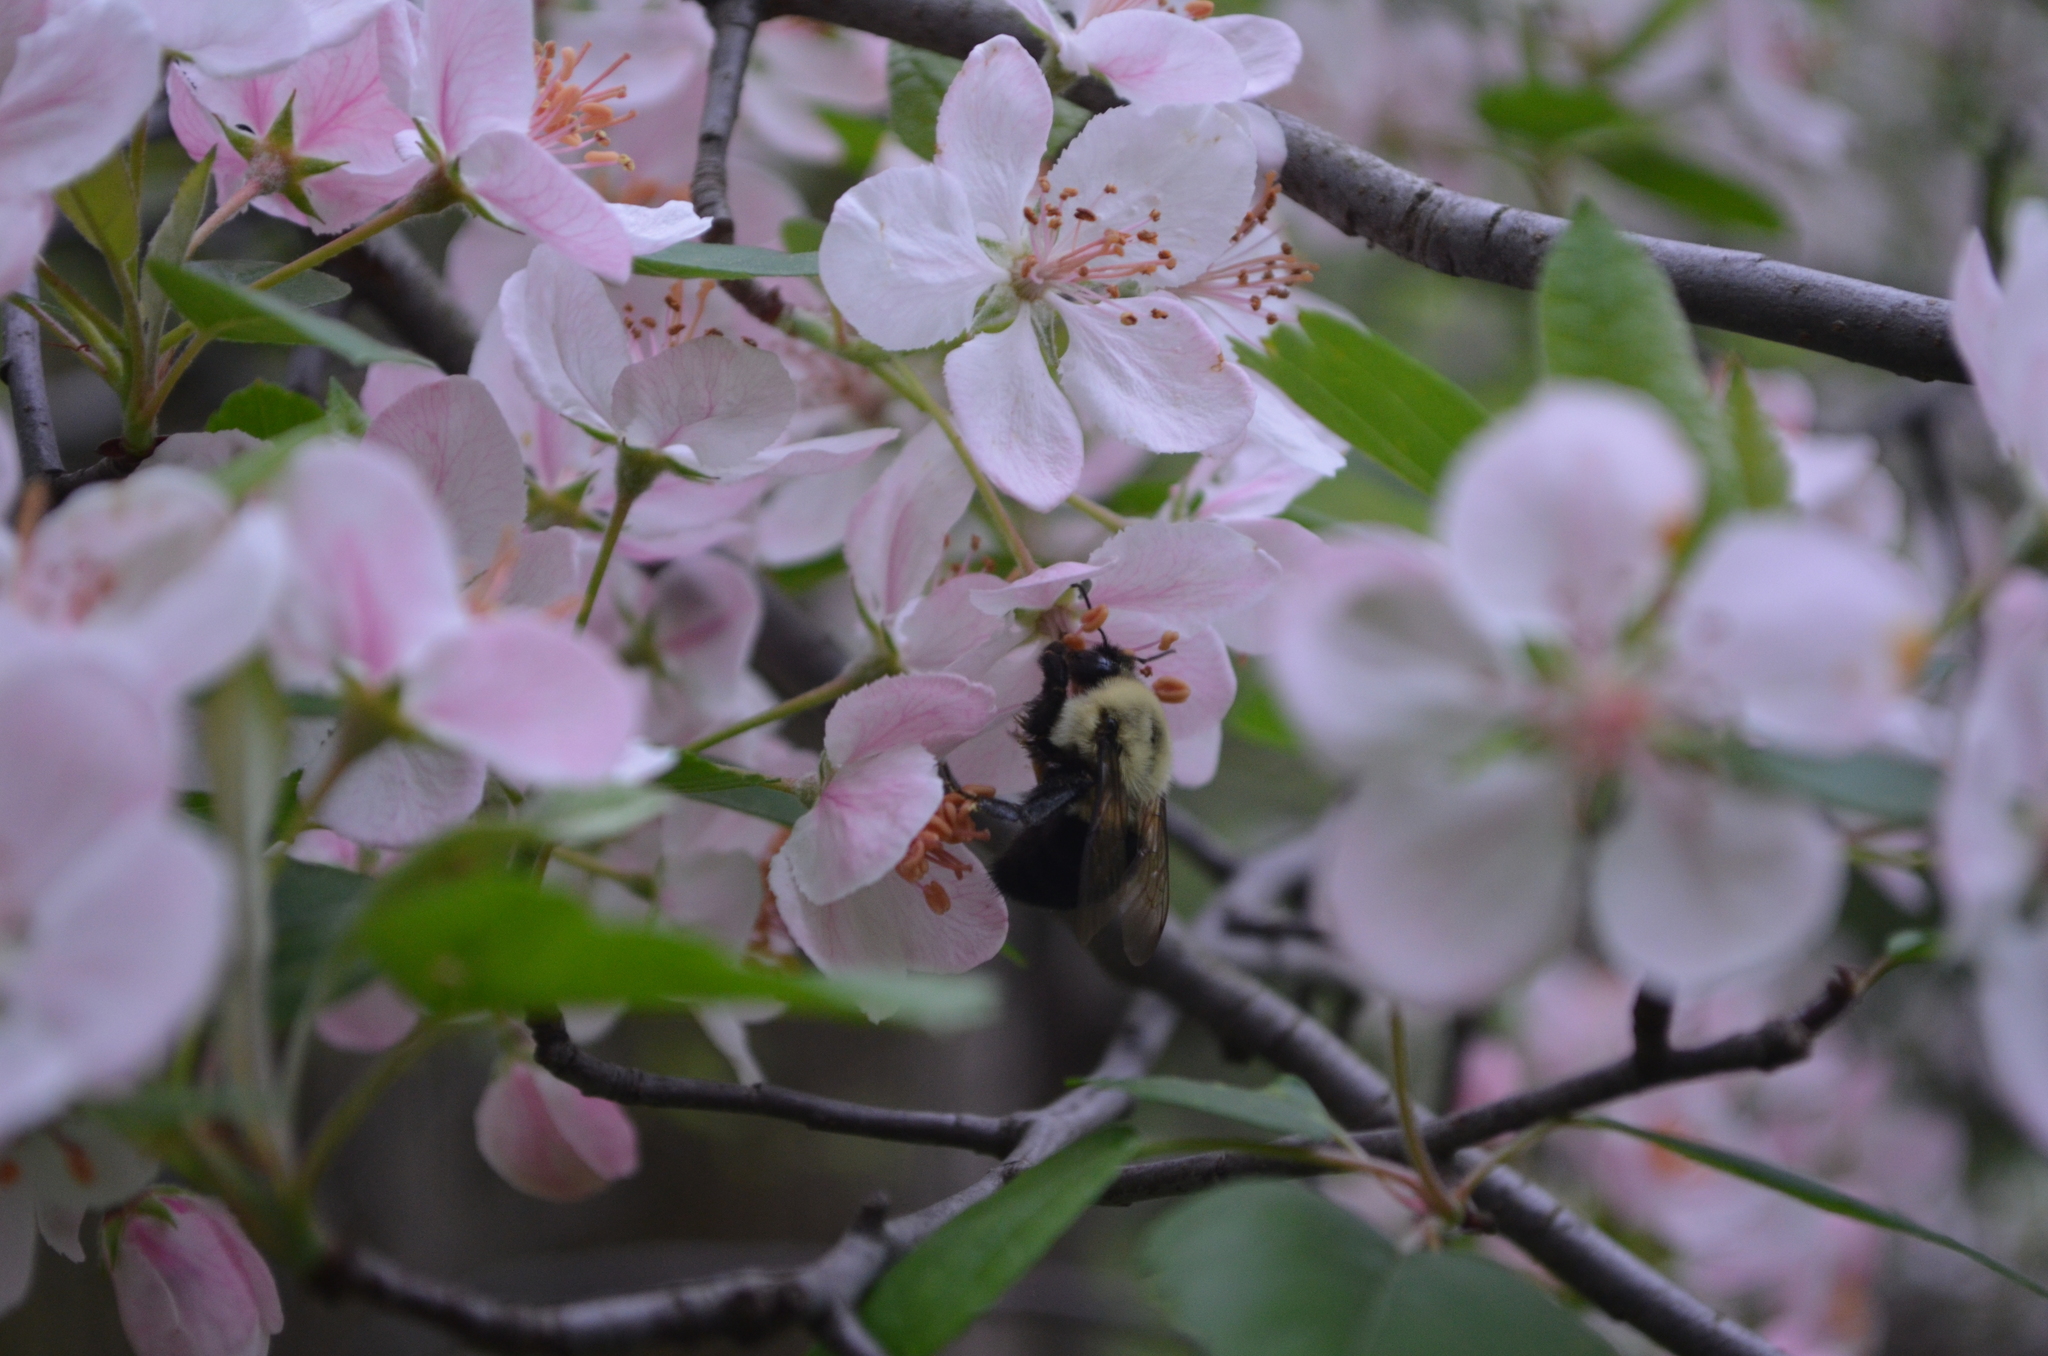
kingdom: Plantae
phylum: Tracheophyta
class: Magnoliopsida
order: Rosales
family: Rosaceae
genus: Malus
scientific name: Malus coronaria
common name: Sweet crab apple
